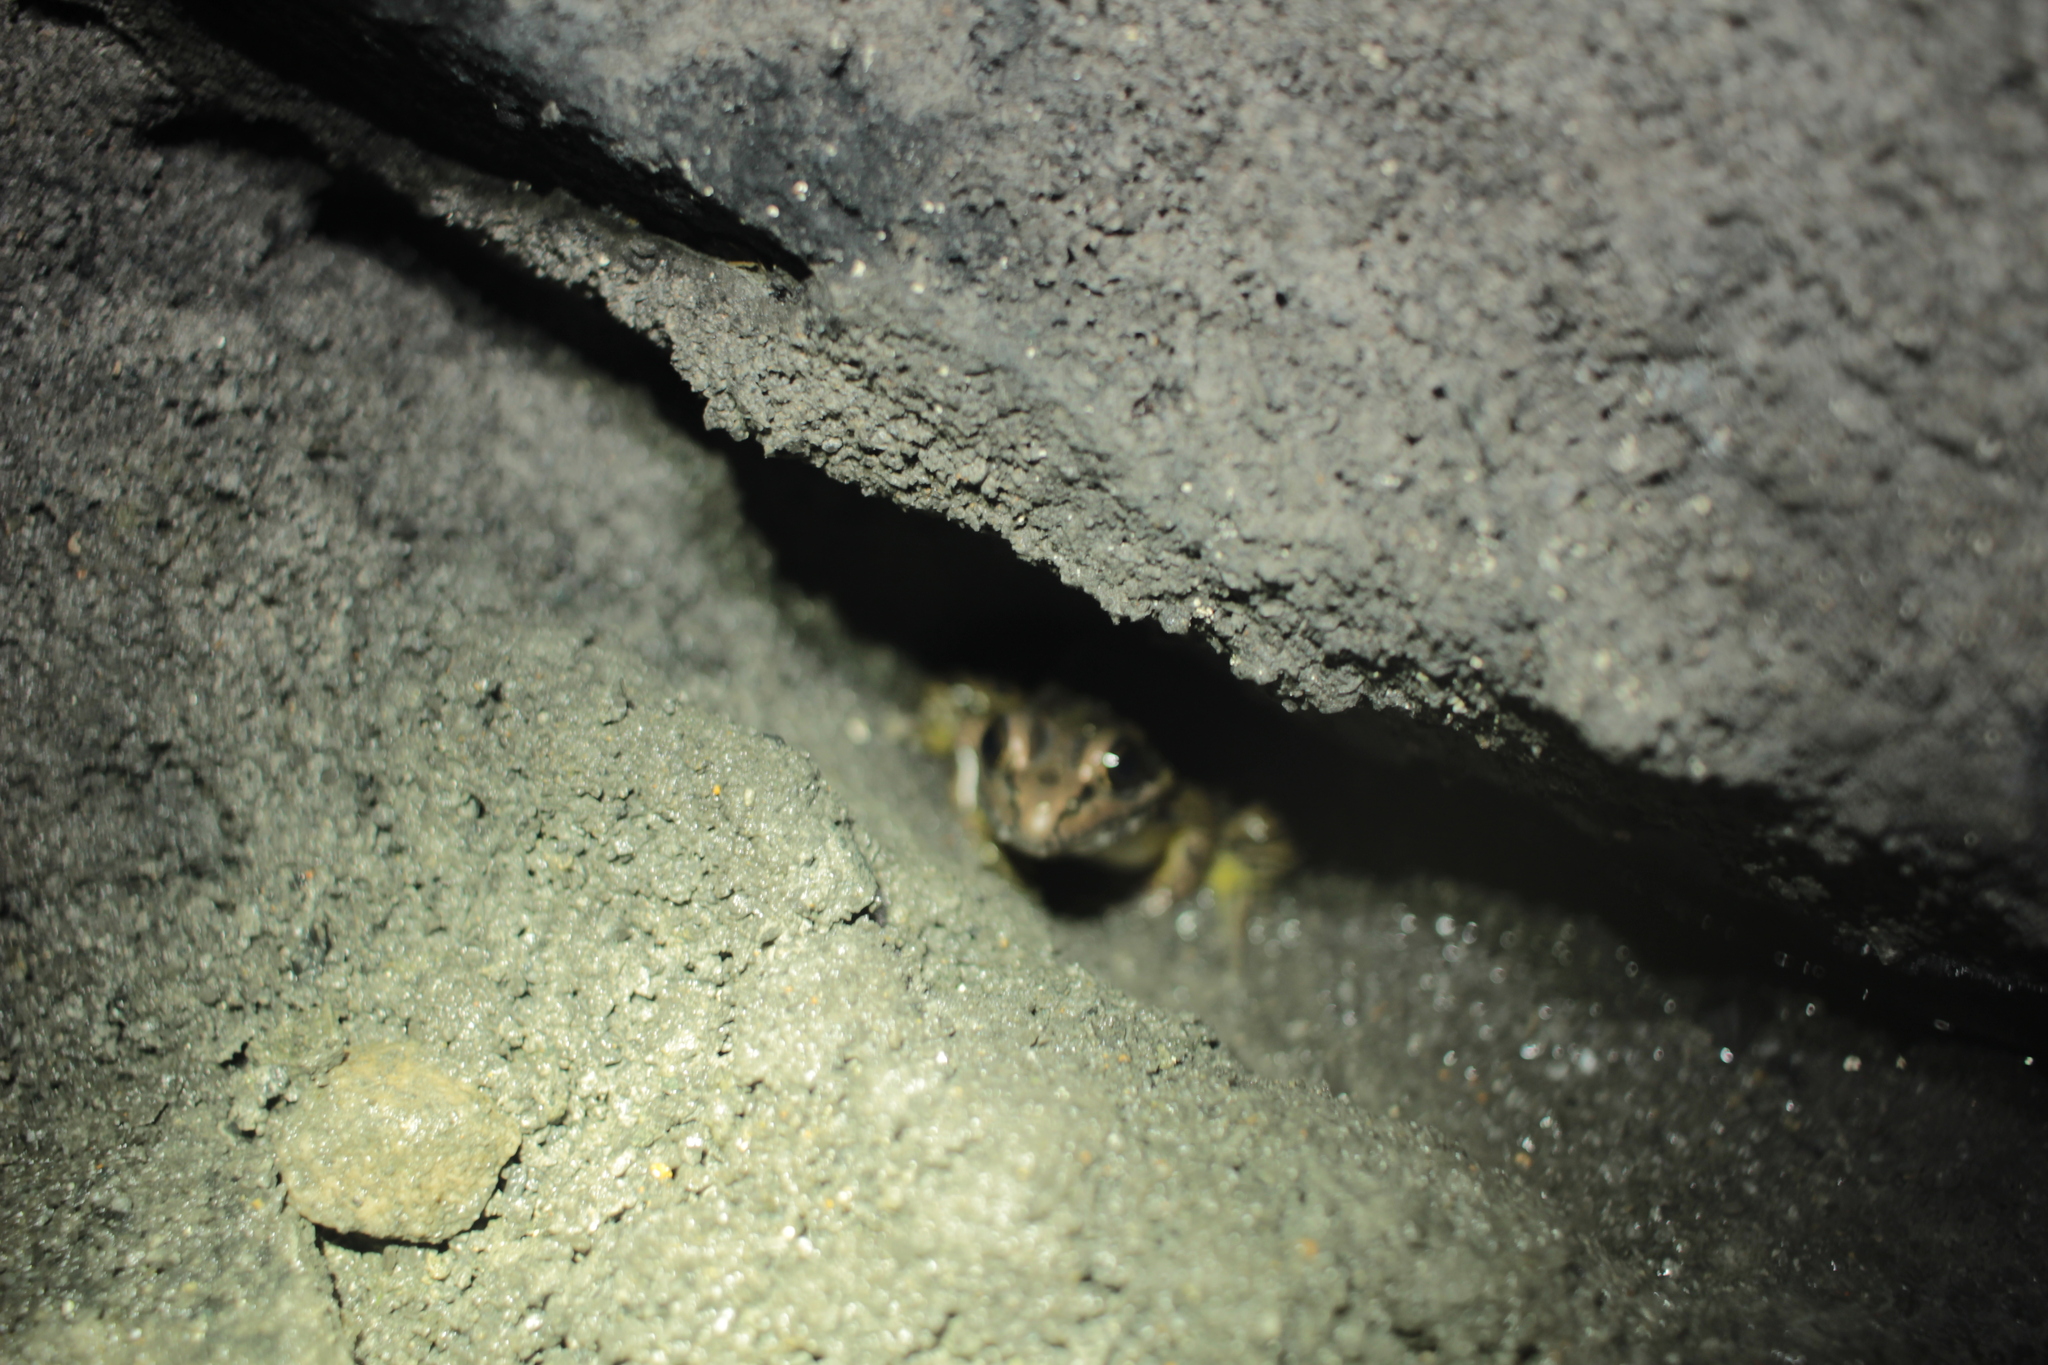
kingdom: Animalia
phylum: Chordata
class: Amphibia
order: Anura
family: Ranidae
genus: Lithobates
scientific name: Lithobates palustris
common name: Pickerel frog
